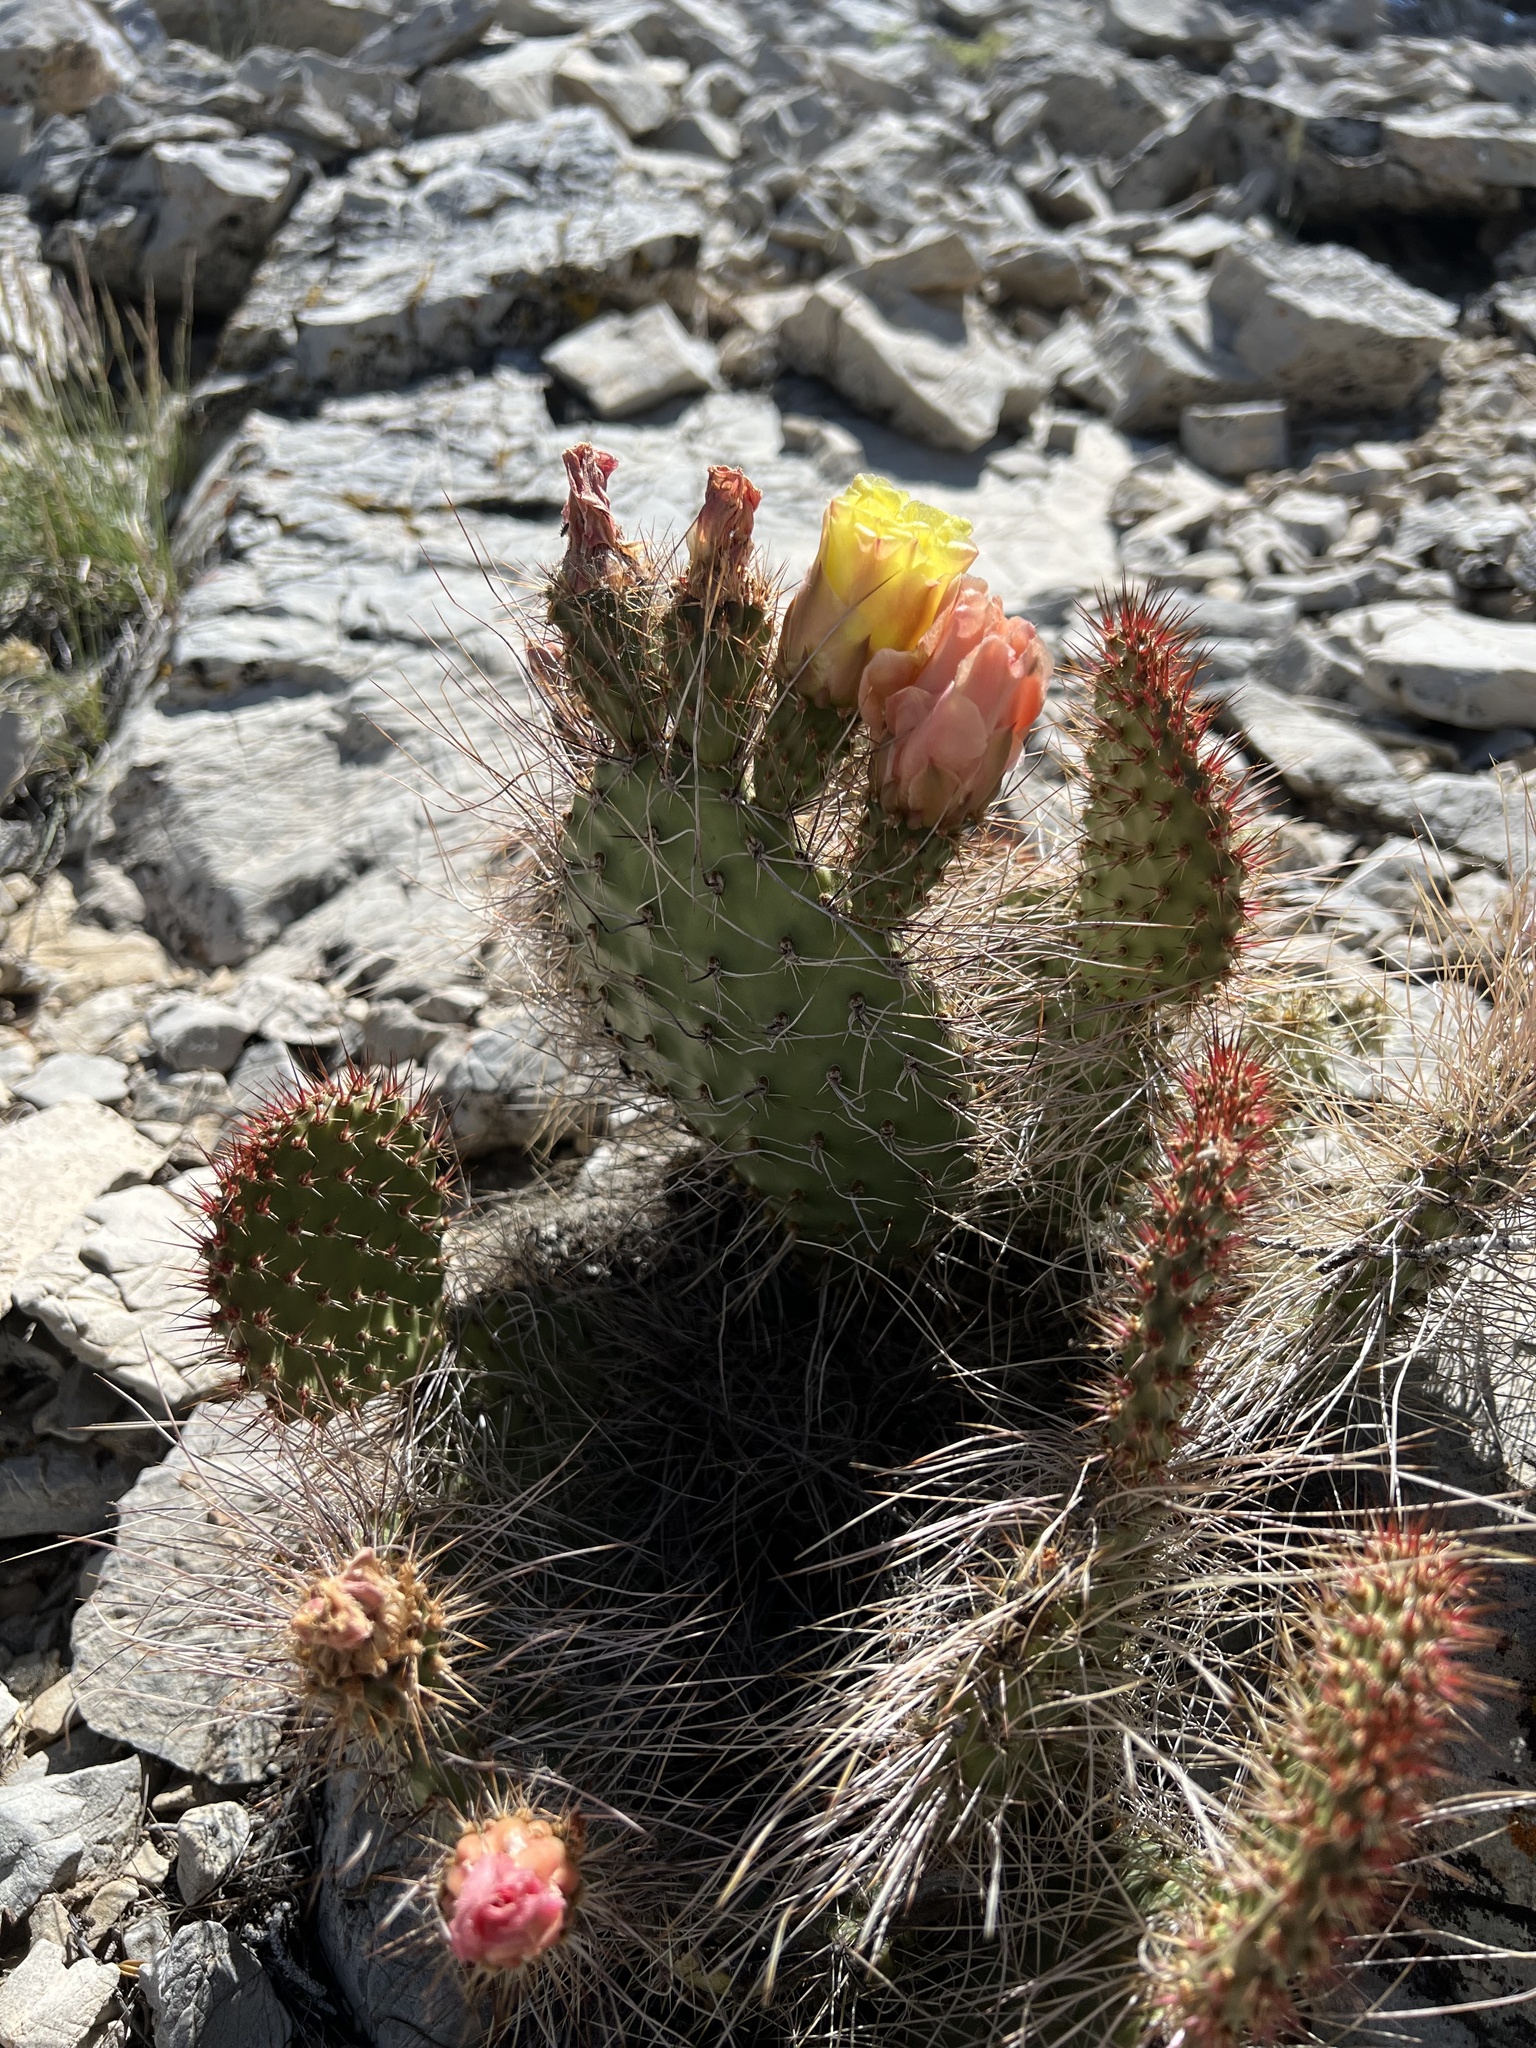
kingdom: Plantae
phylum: Tracheophyta
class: Magnoliopsida
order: Caryophyllales
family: Cactaceae
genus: Opuntia
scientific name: Opuntia polyacantha
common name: Plains prickly-pear
